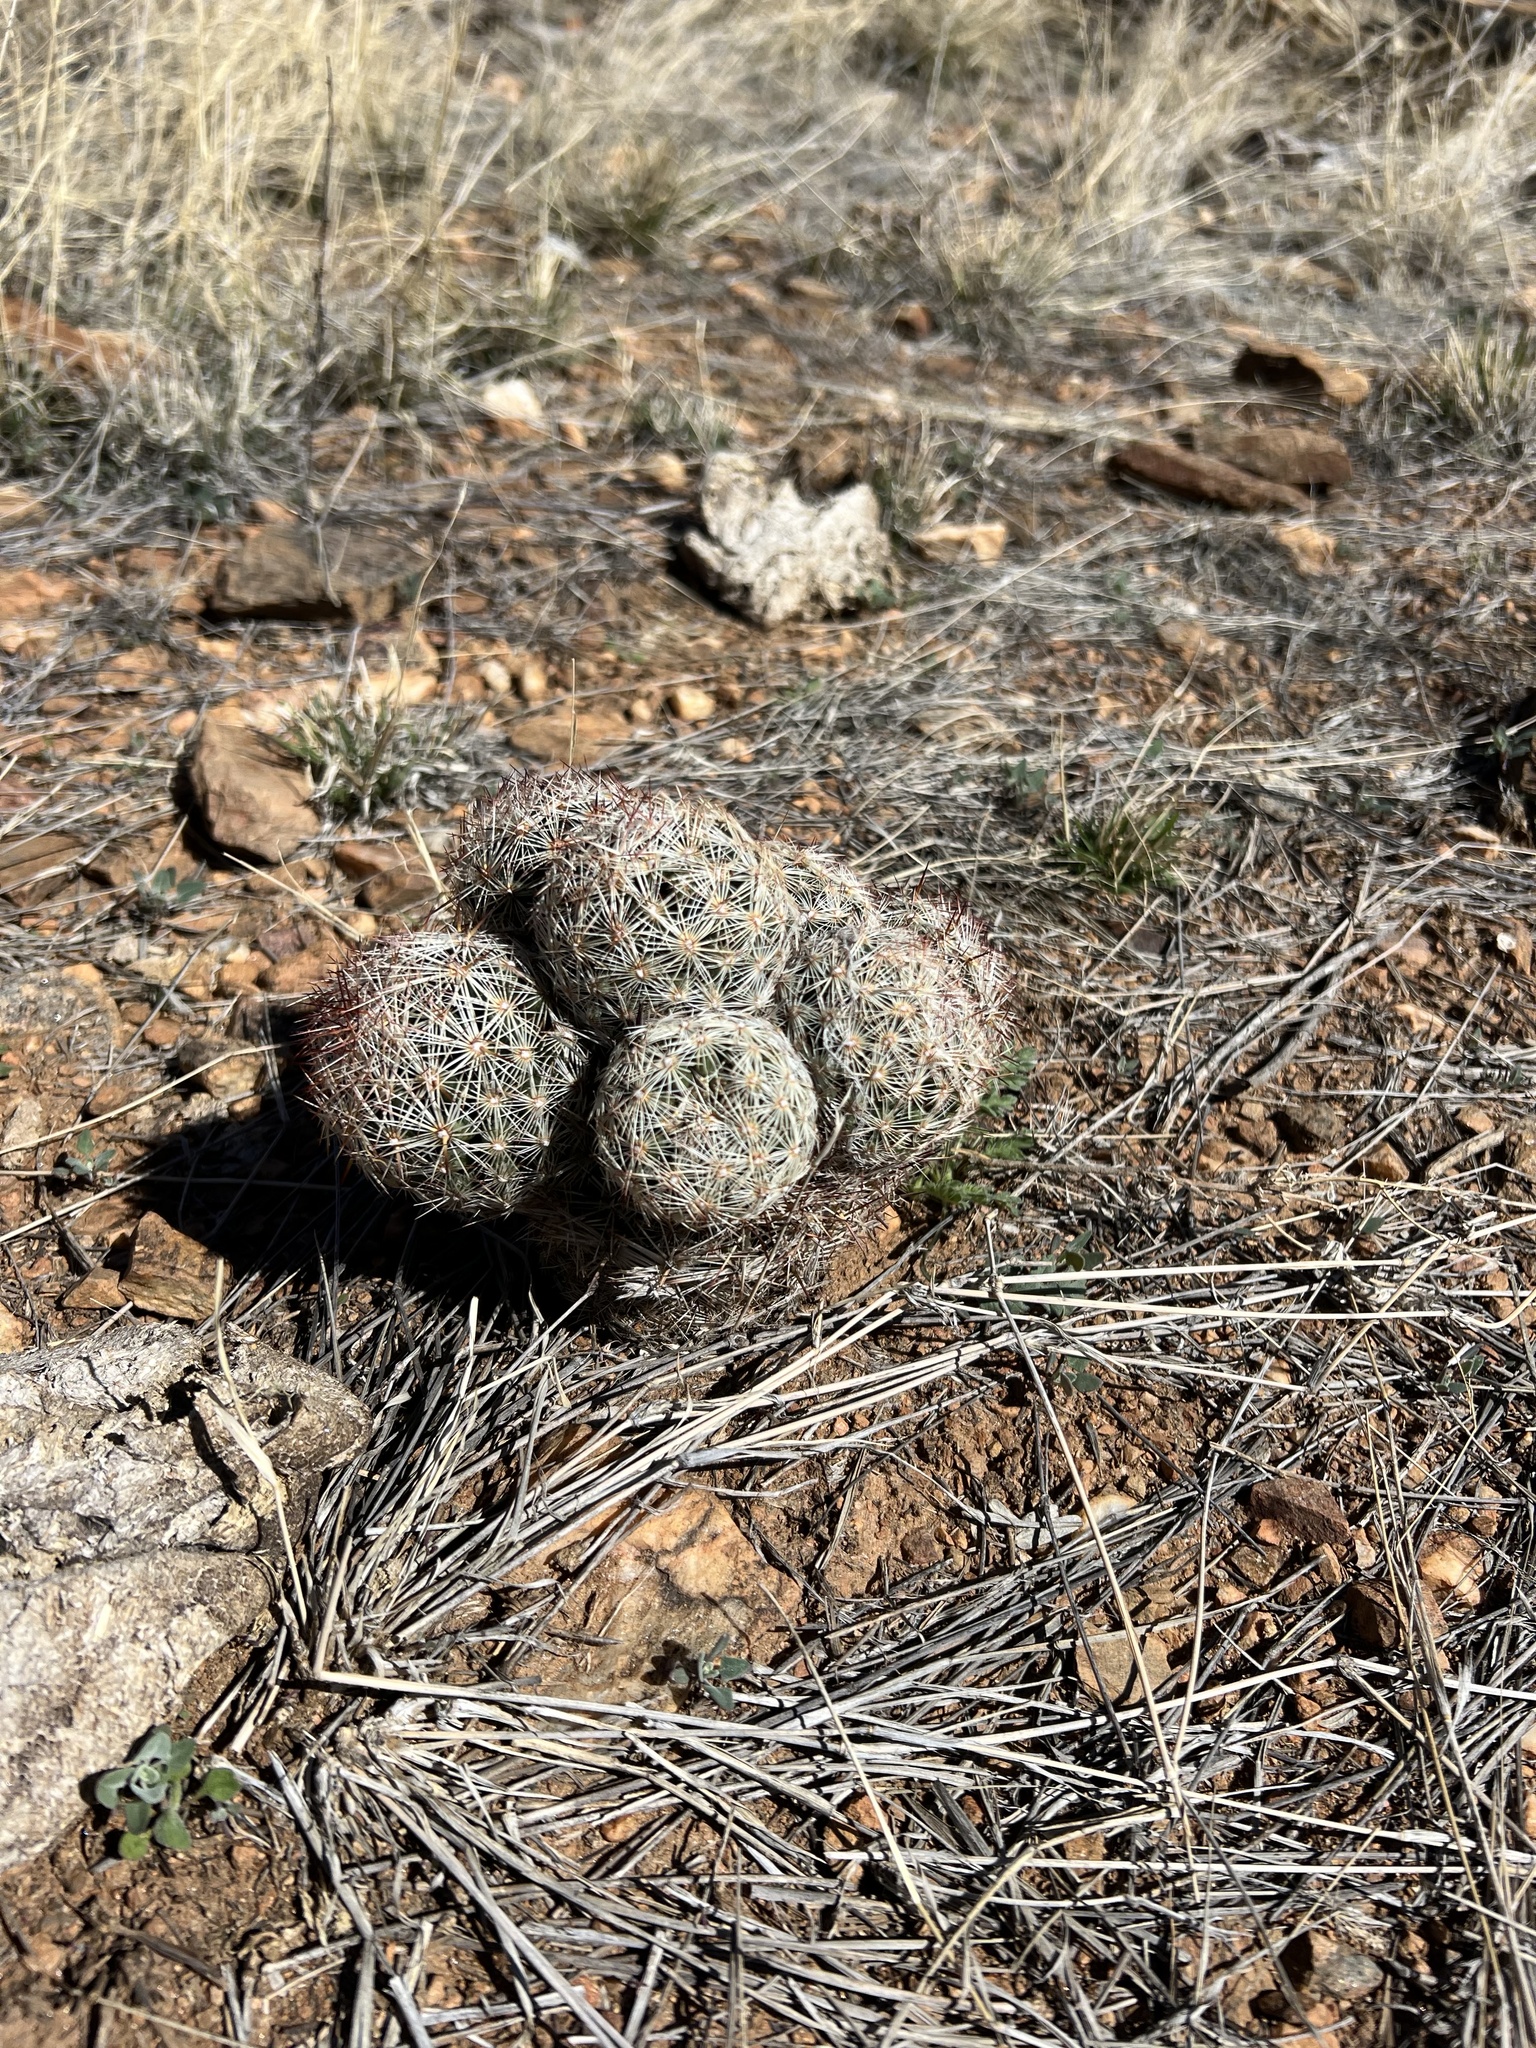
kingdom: Plantae
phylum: Tracheophyta
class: Magnoliopsida
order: Caryophyllales
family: Cactaceae
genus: Pelecyphora
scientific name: Pelecyphora vivipara
